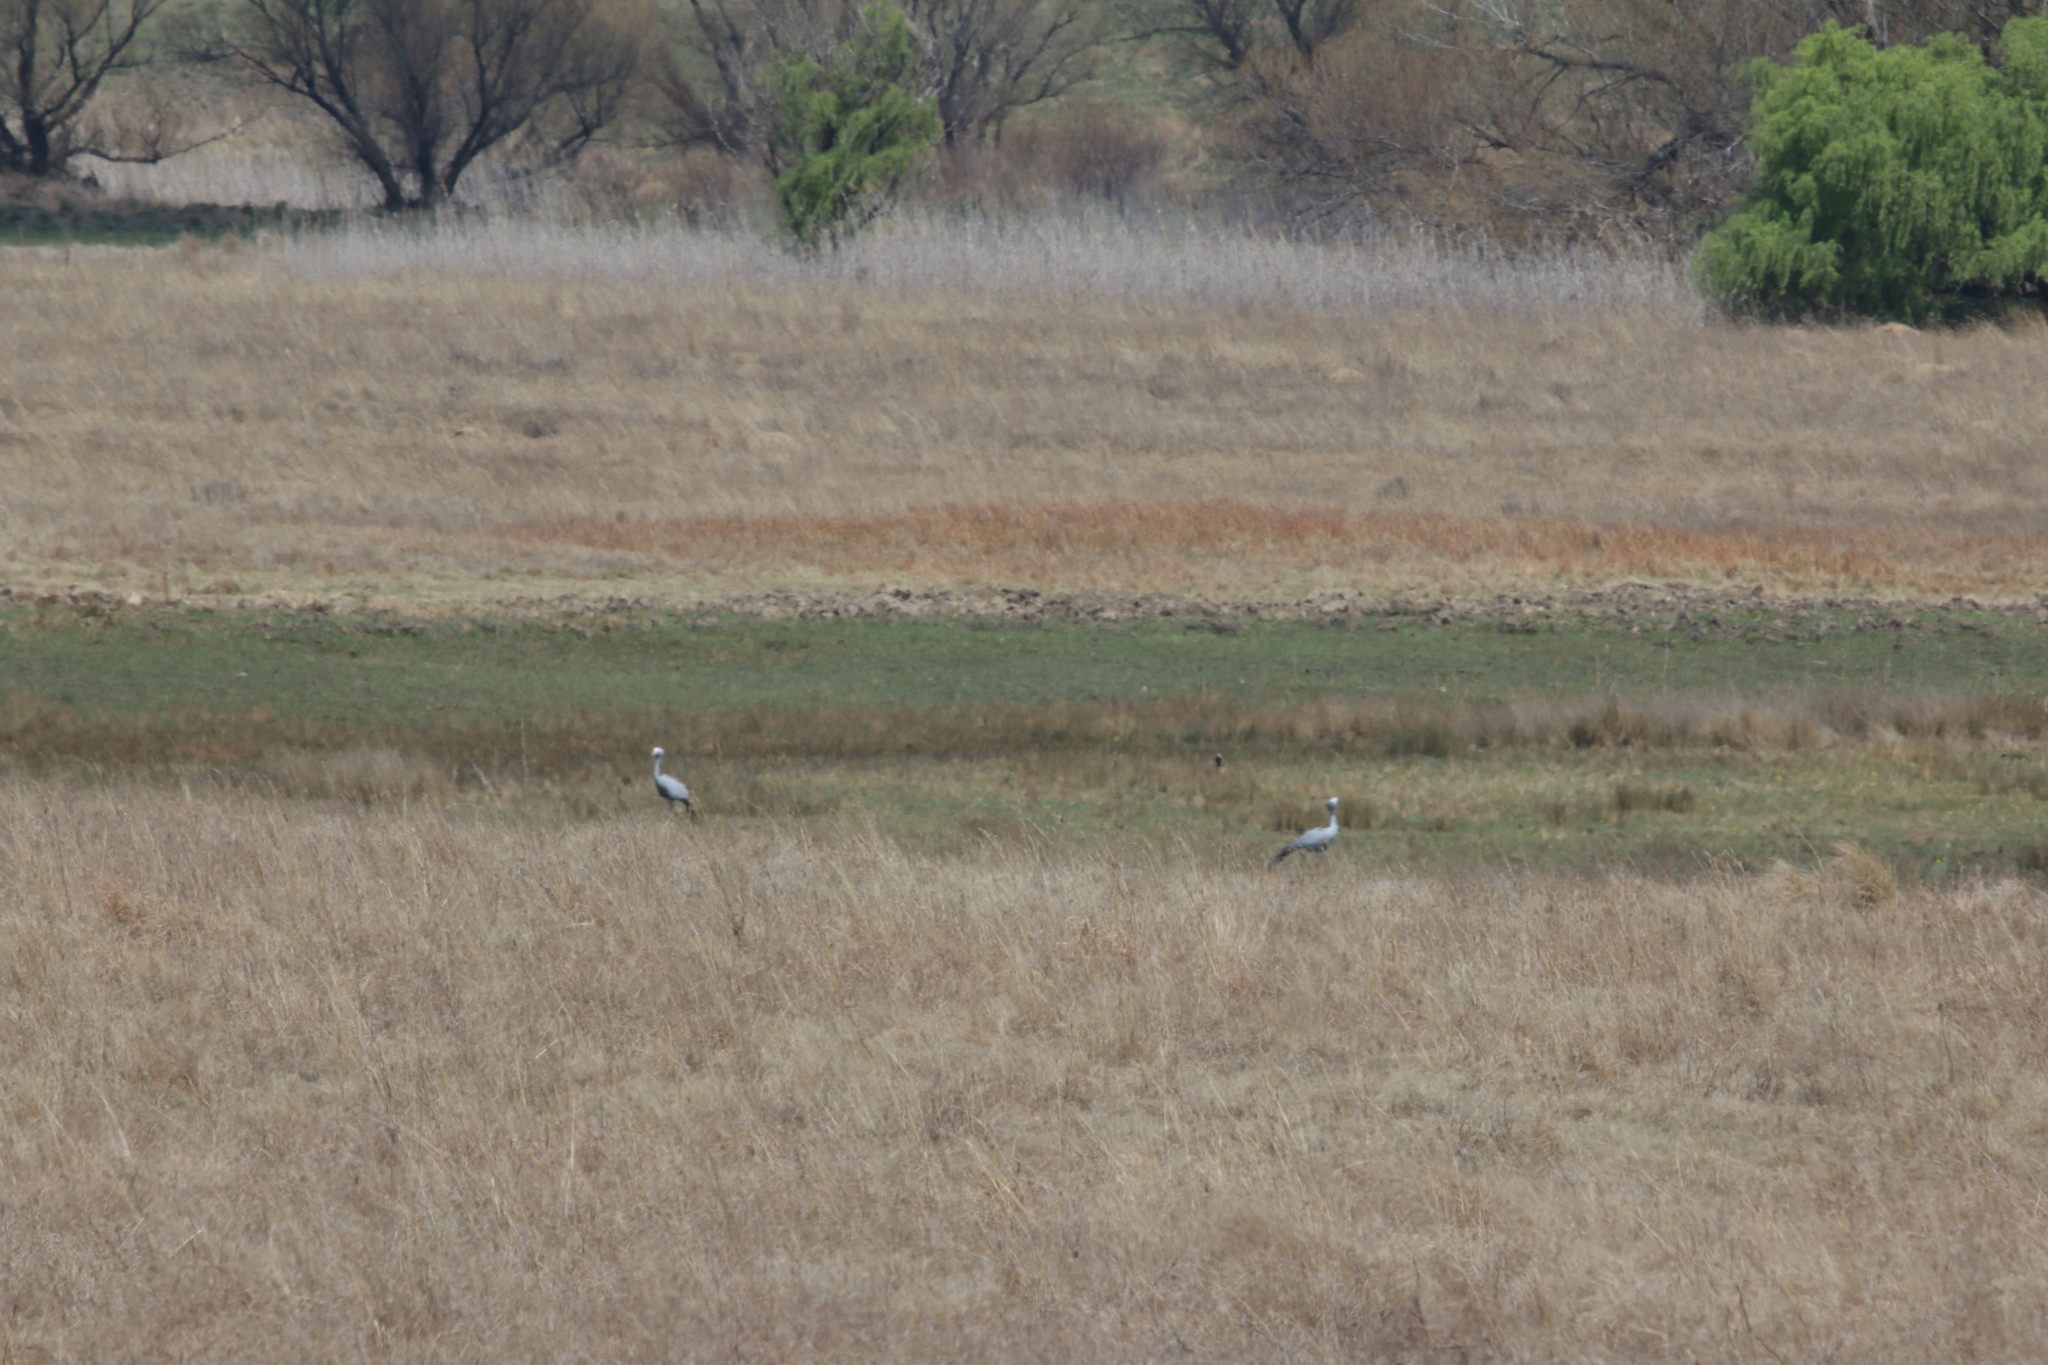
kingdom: Animalia
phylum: Chordata
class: Aves
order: Gruiformes
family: Gruidae
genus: Anthropoides
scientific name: Anthropoides paradiseus
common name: Blue crane
